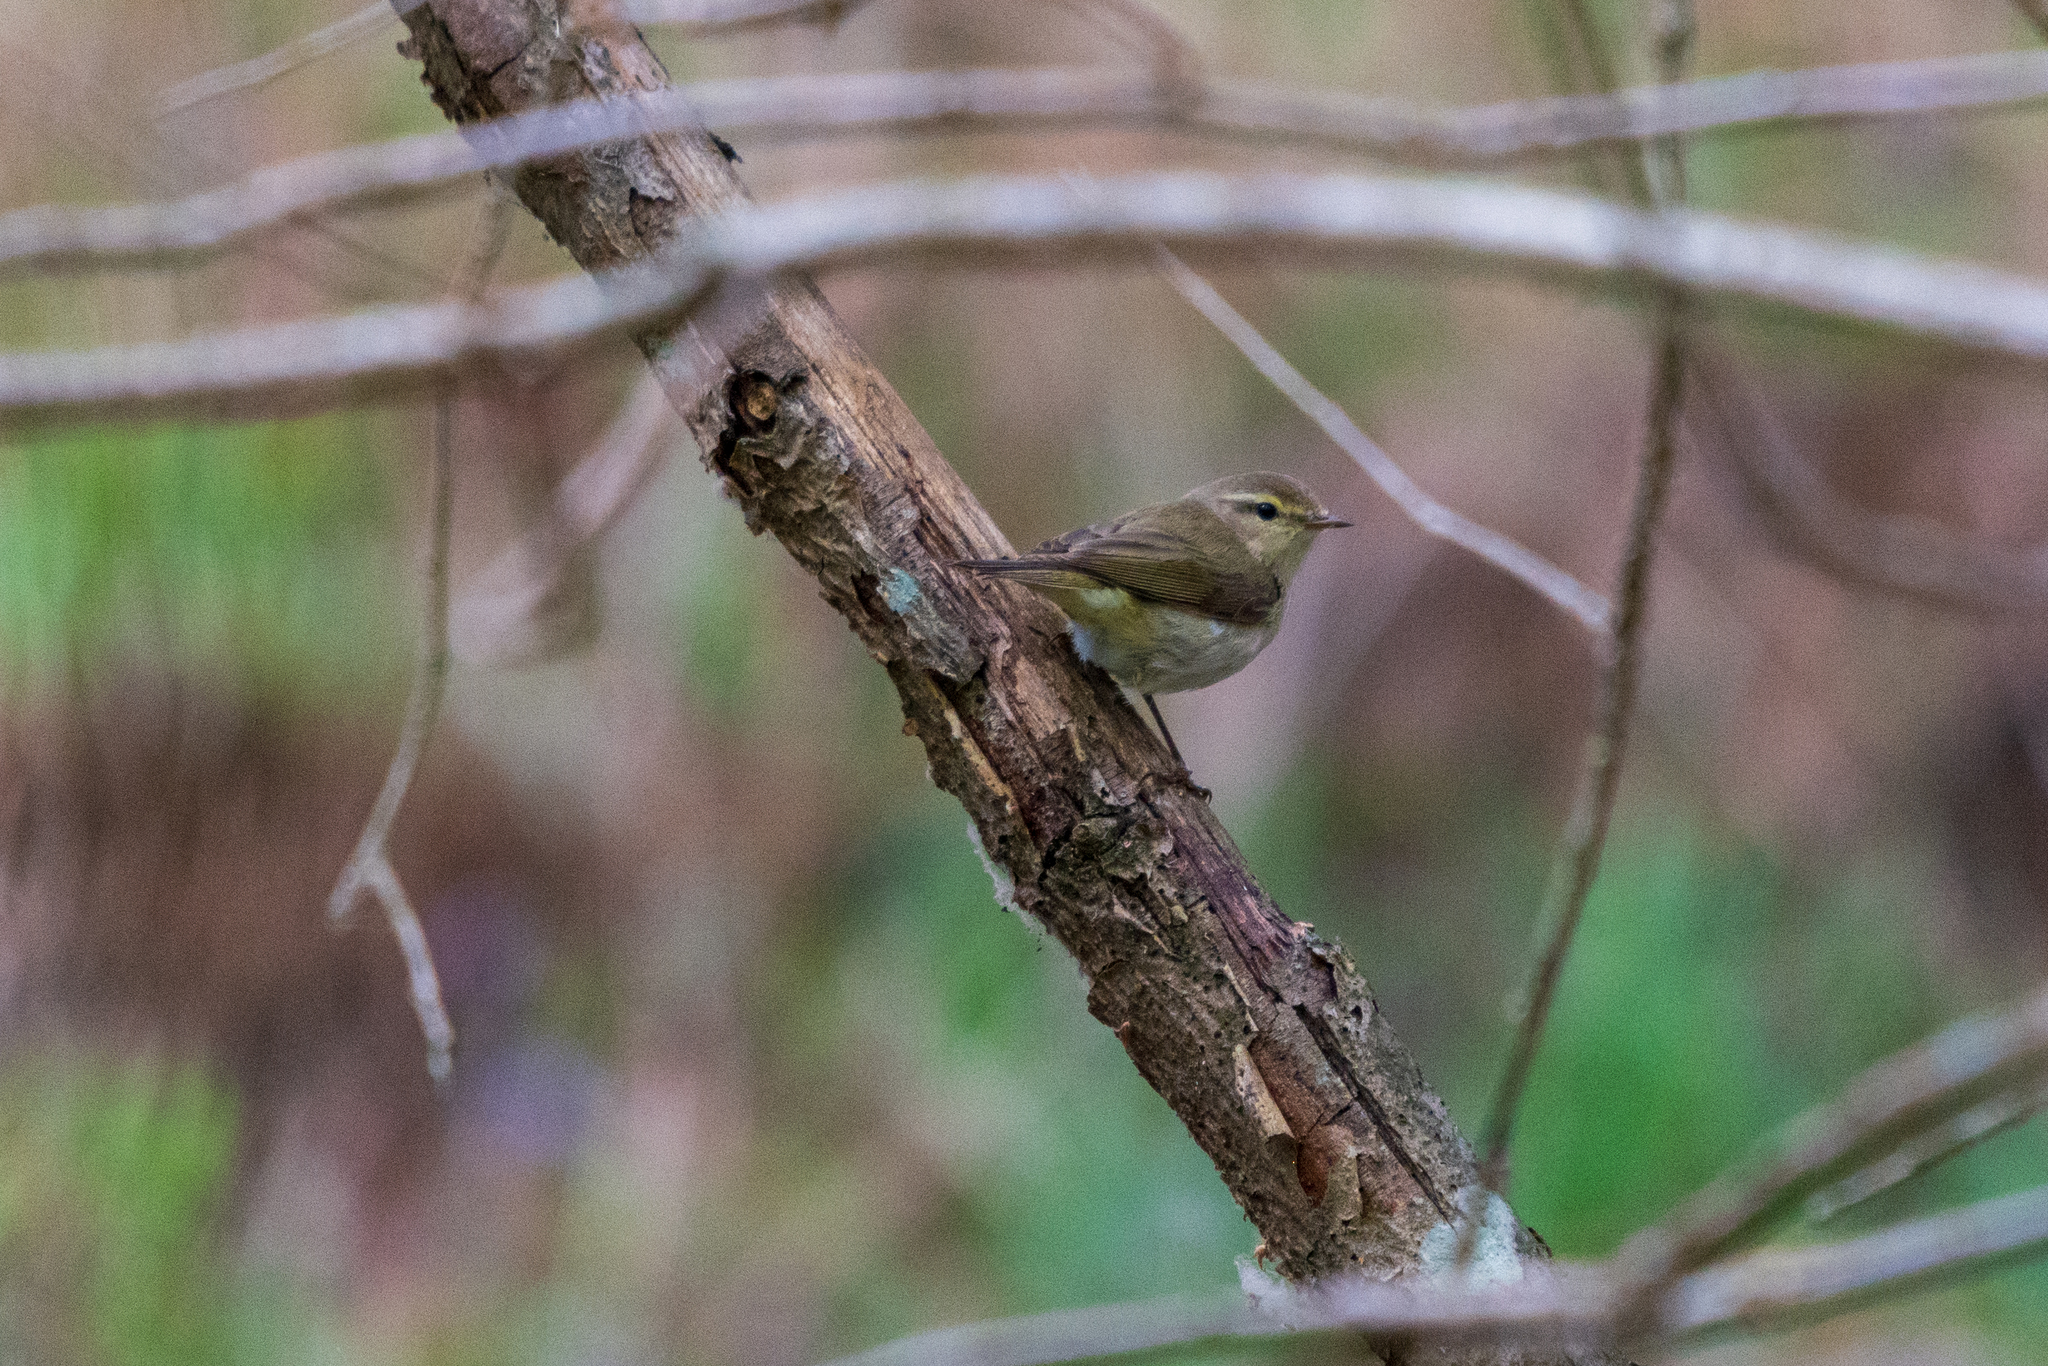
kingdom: Animalia
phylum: Chordata
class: Aves
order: Passeriformes
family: Phylloscopidae
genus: Phylloscopus
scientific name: Phylloscopus collybita
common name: Common chiffchaff
